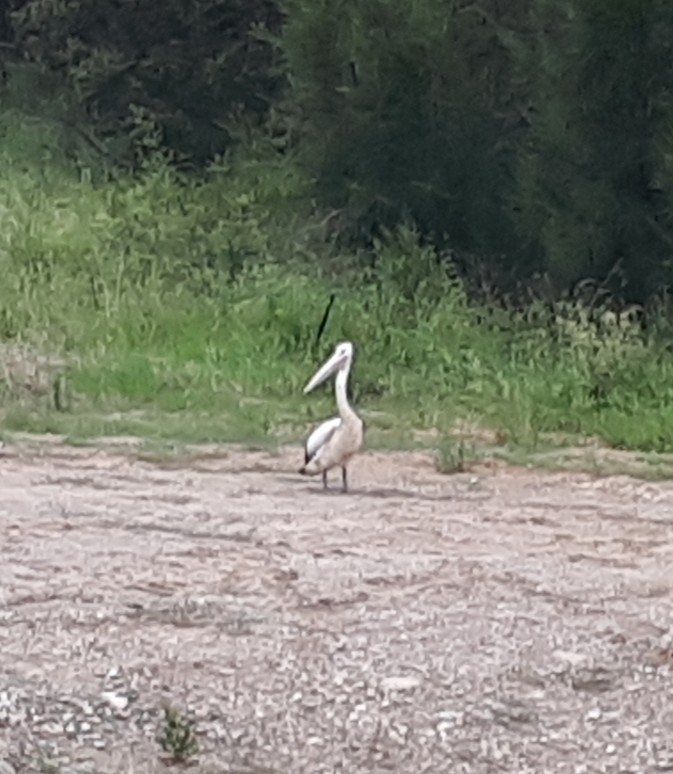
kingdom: Animalia
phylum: Chordata
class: Aves
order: Pelecaniformes
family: Pelecanidae
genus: Pelecanus
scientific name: Pelecanus conspicillatus
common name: Australian pelican
